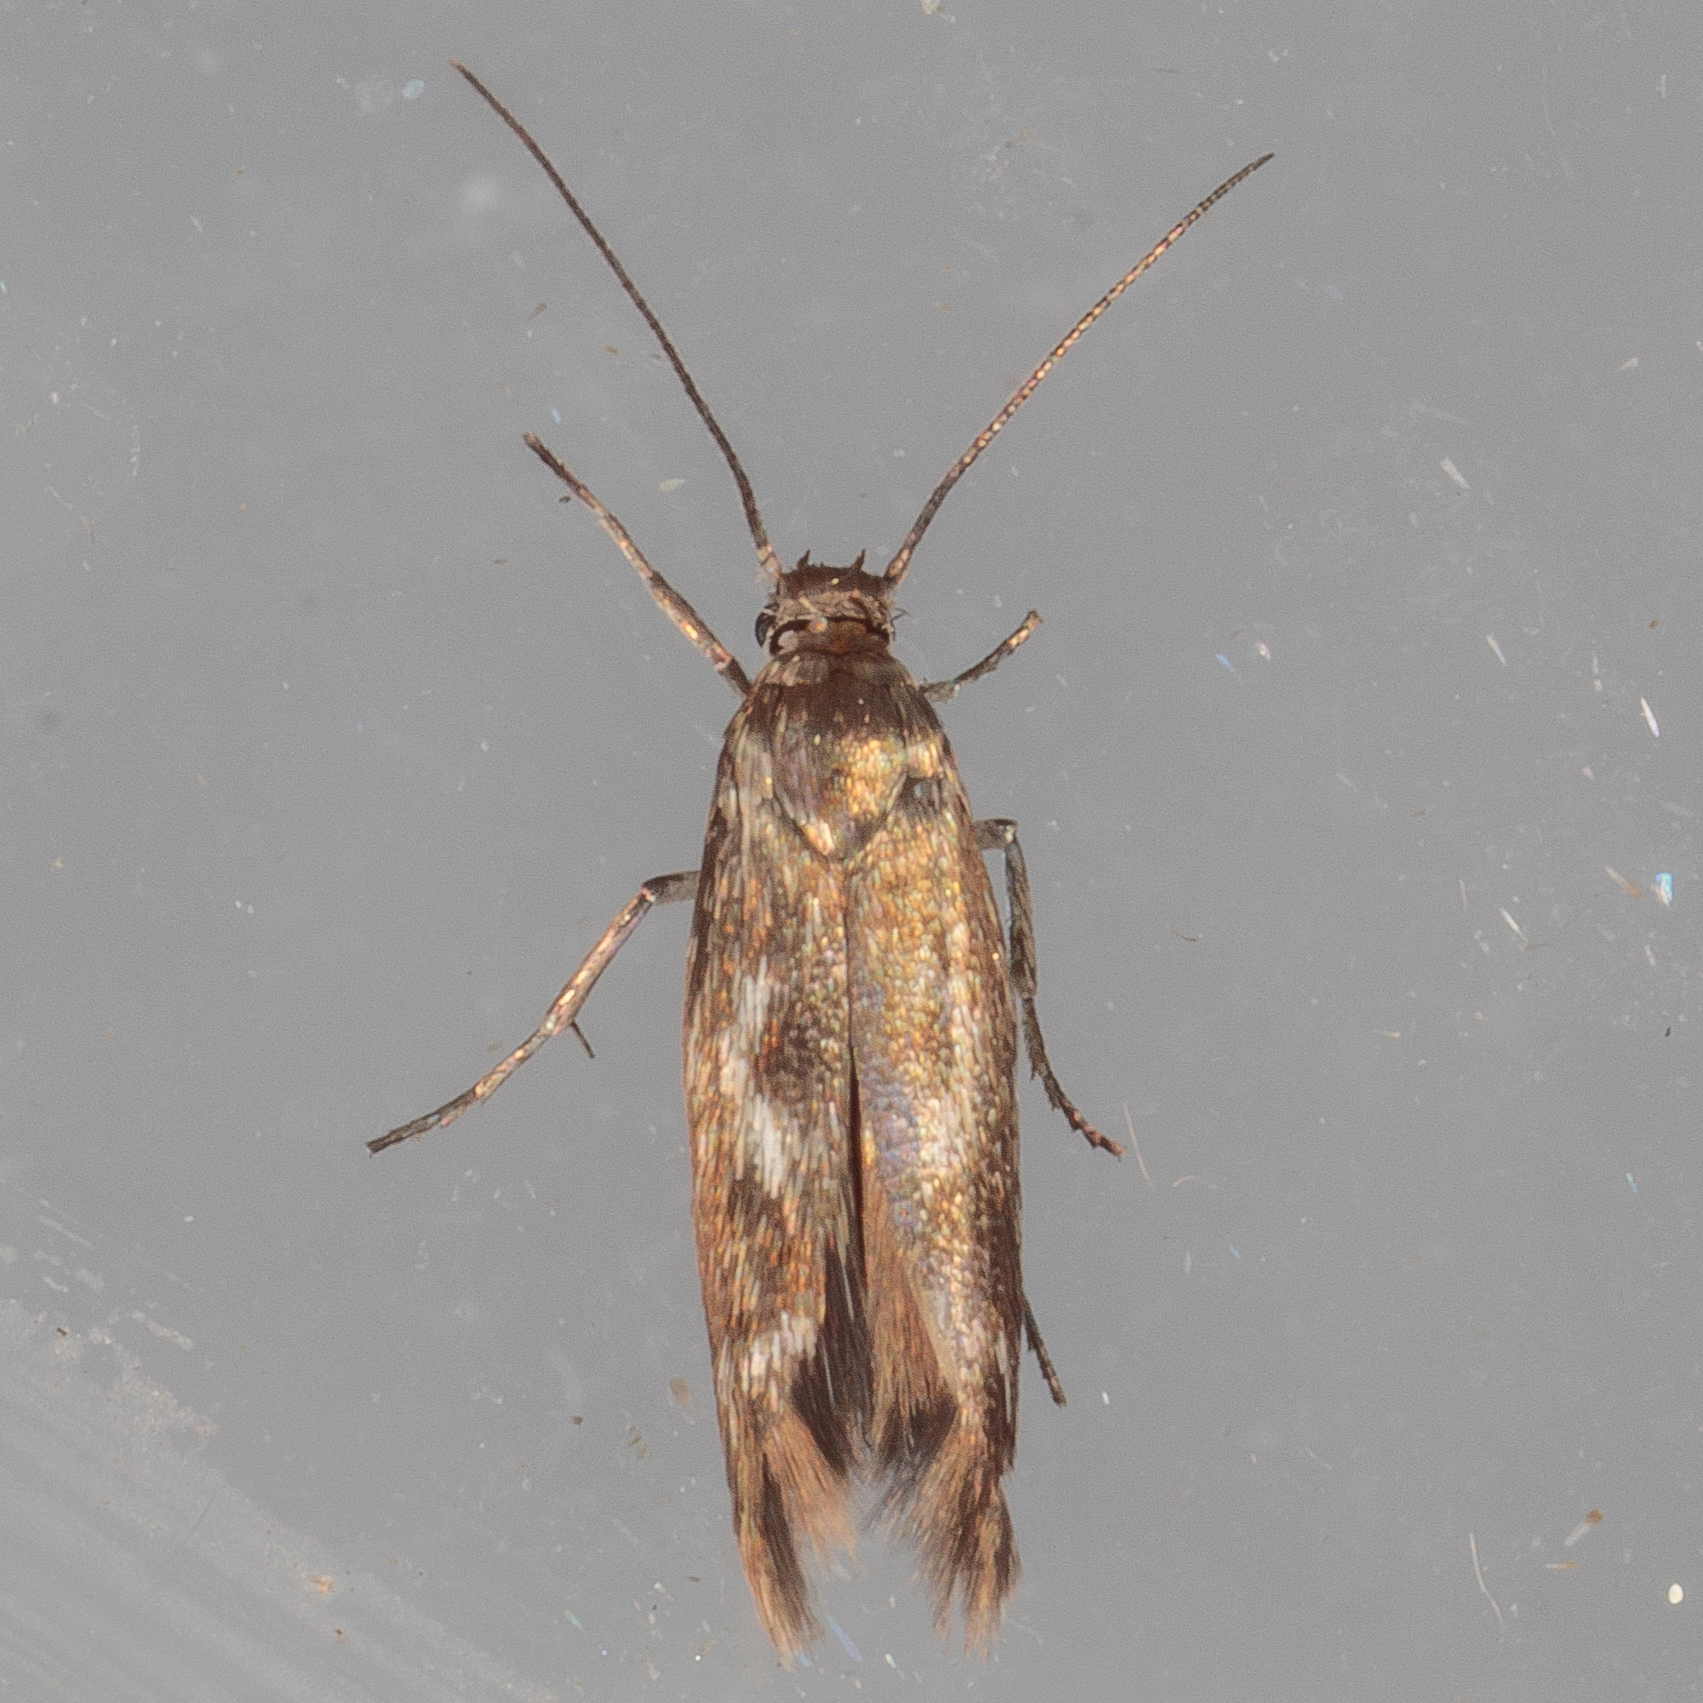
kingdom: Animalia
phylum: Arthropoda
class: Insecta
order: Lepidoptera
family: Scythrididae
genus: Scythris
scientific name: Scythris trivinctella
